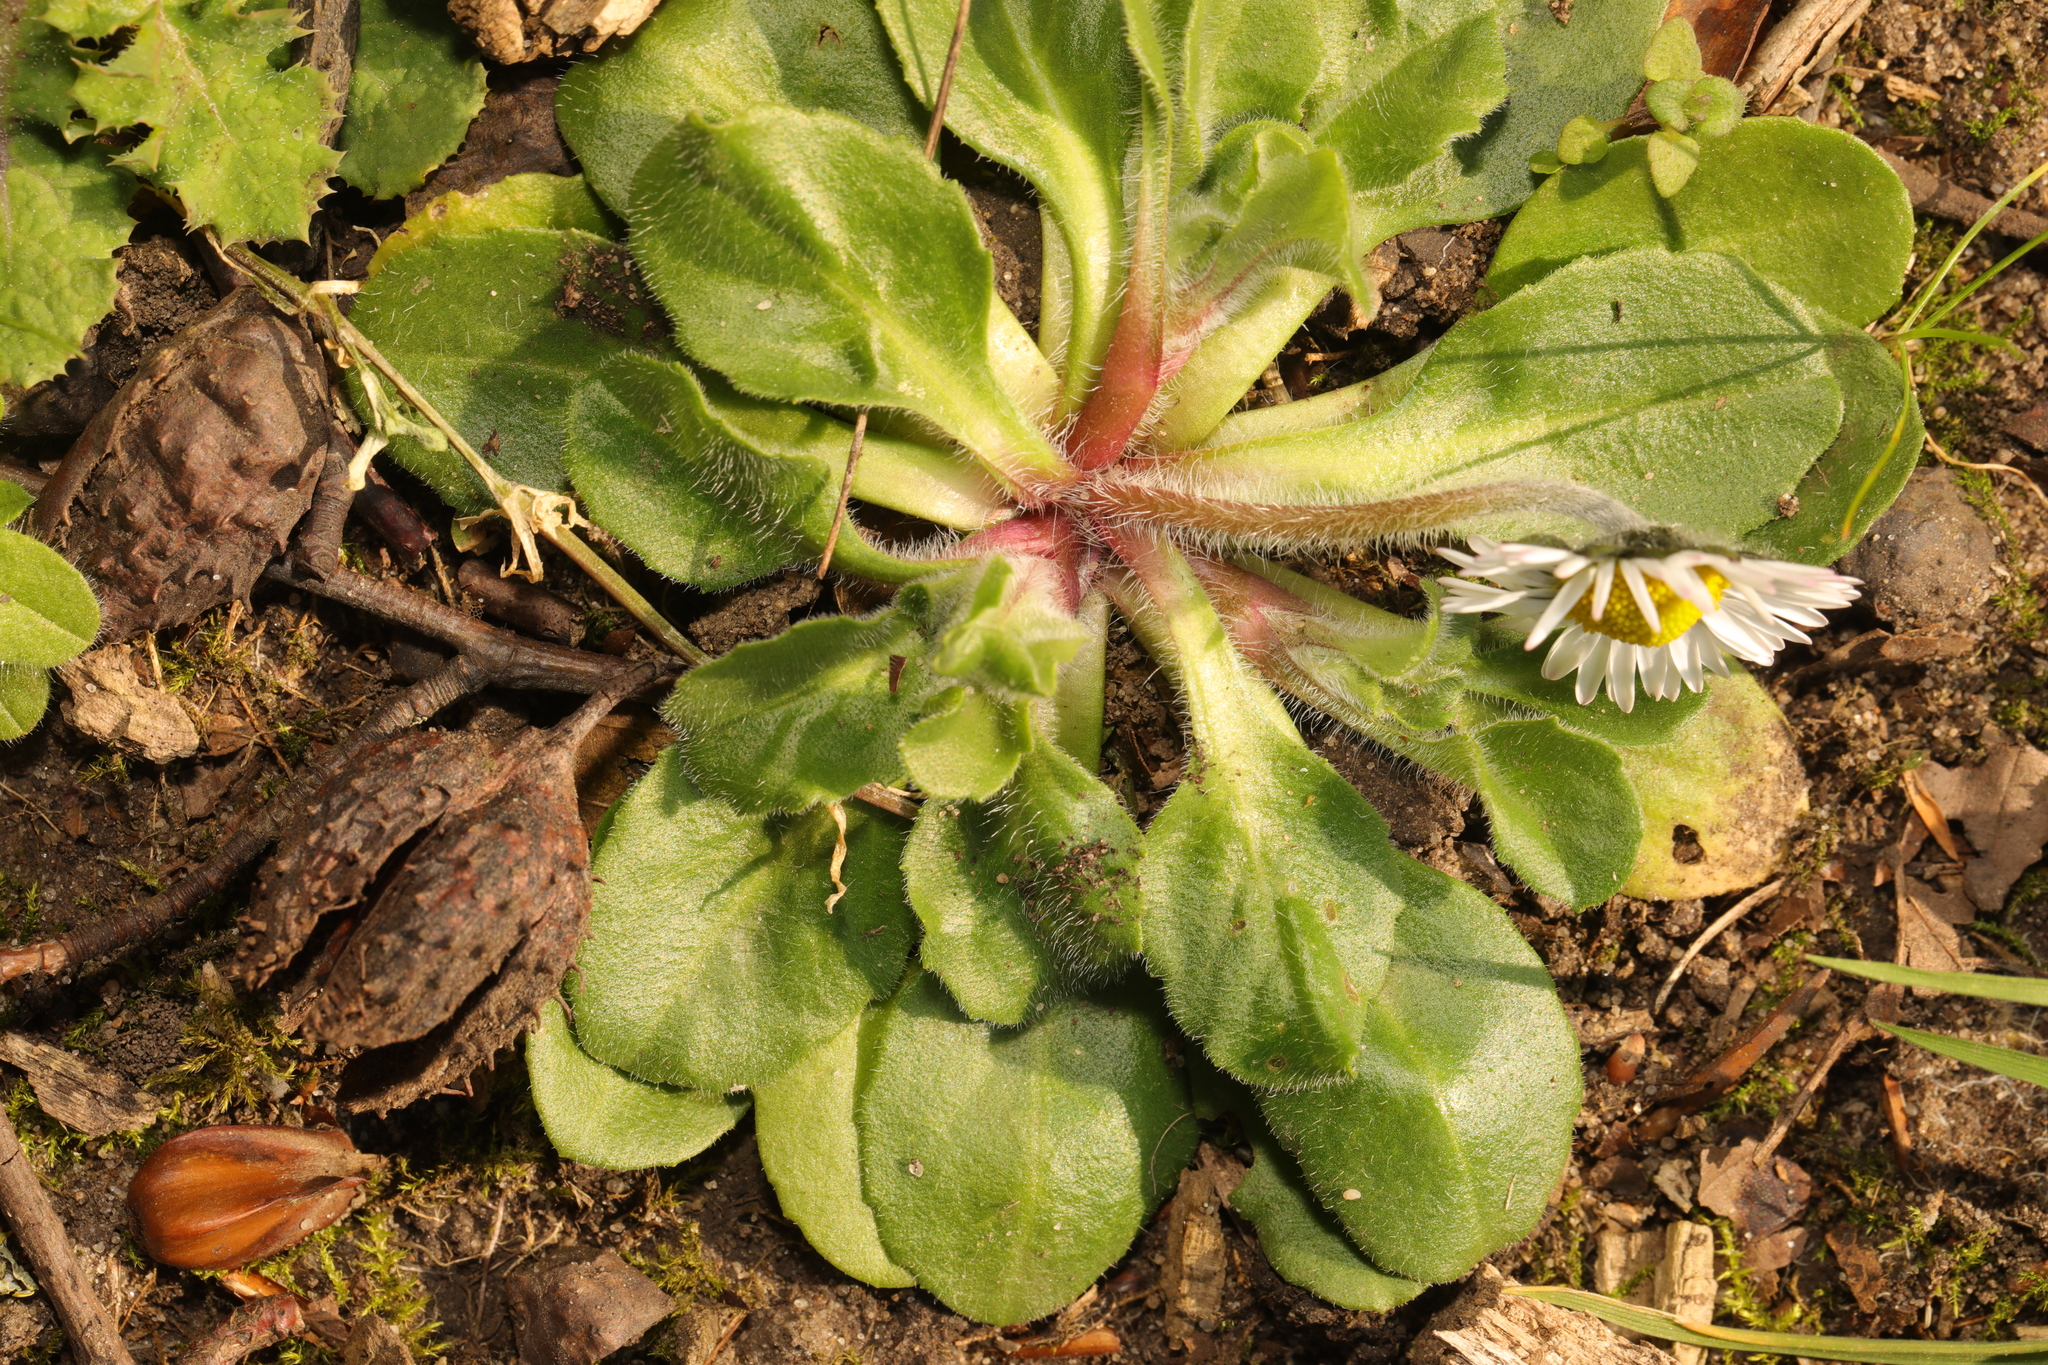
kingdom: Plantae
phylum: Tracheophyta
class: Magnoliopsida
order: Asterales
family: Asteraceae
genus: Bellis
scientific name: Bellis perennis
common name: Lawndaisy
